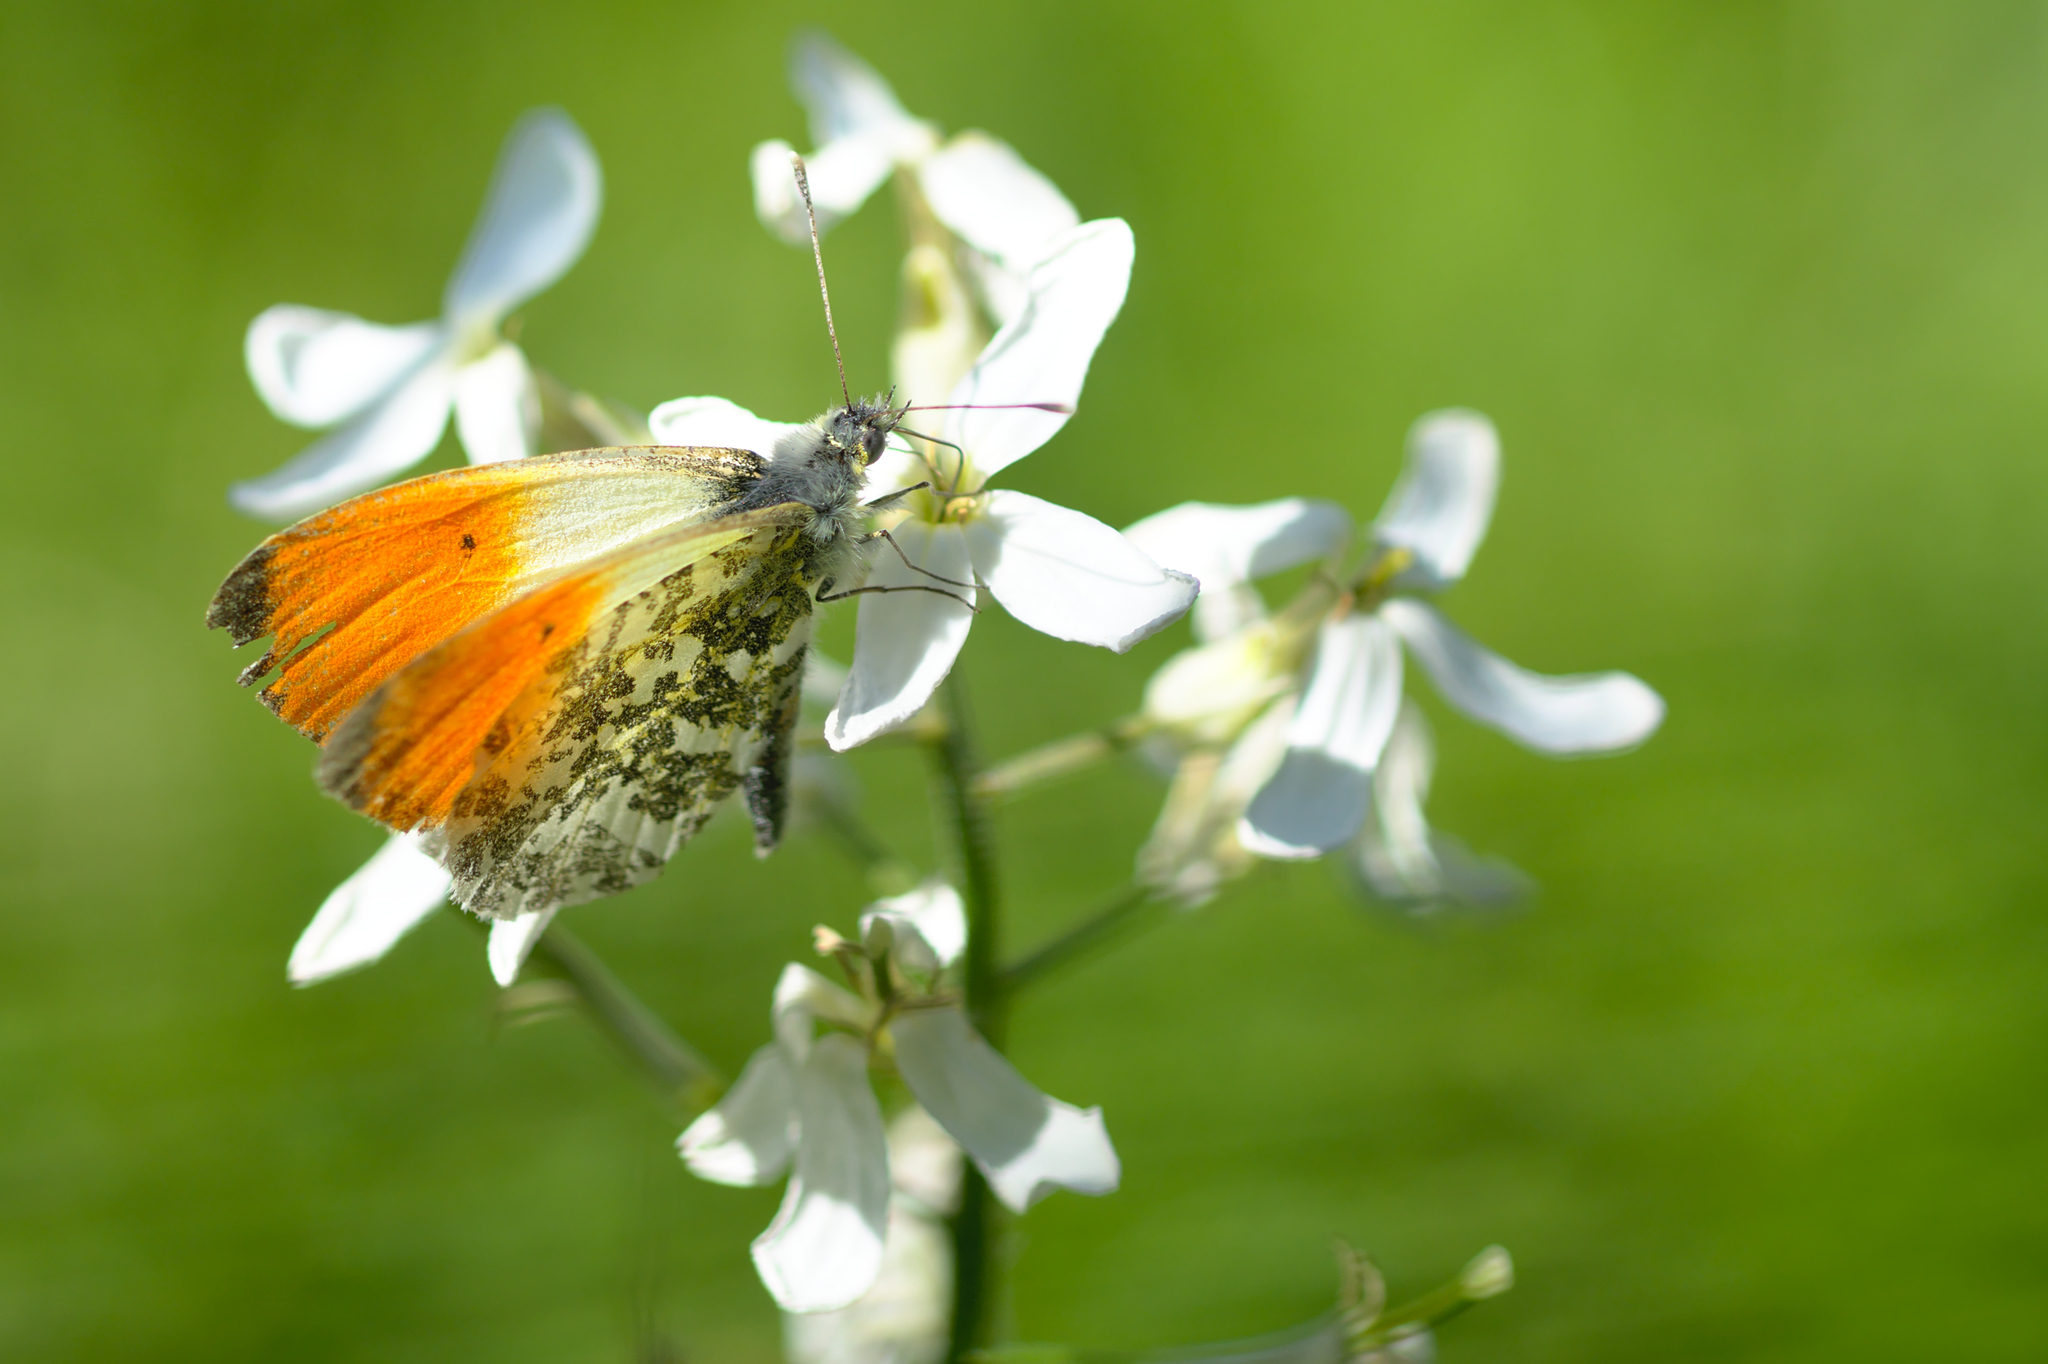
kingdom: Animalia
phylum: Arthropoda
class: Insecta
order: Lepidoptera
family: Pieridae
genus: Anthocharis
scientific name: Anthocharis cardamines
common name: Orange-tip
